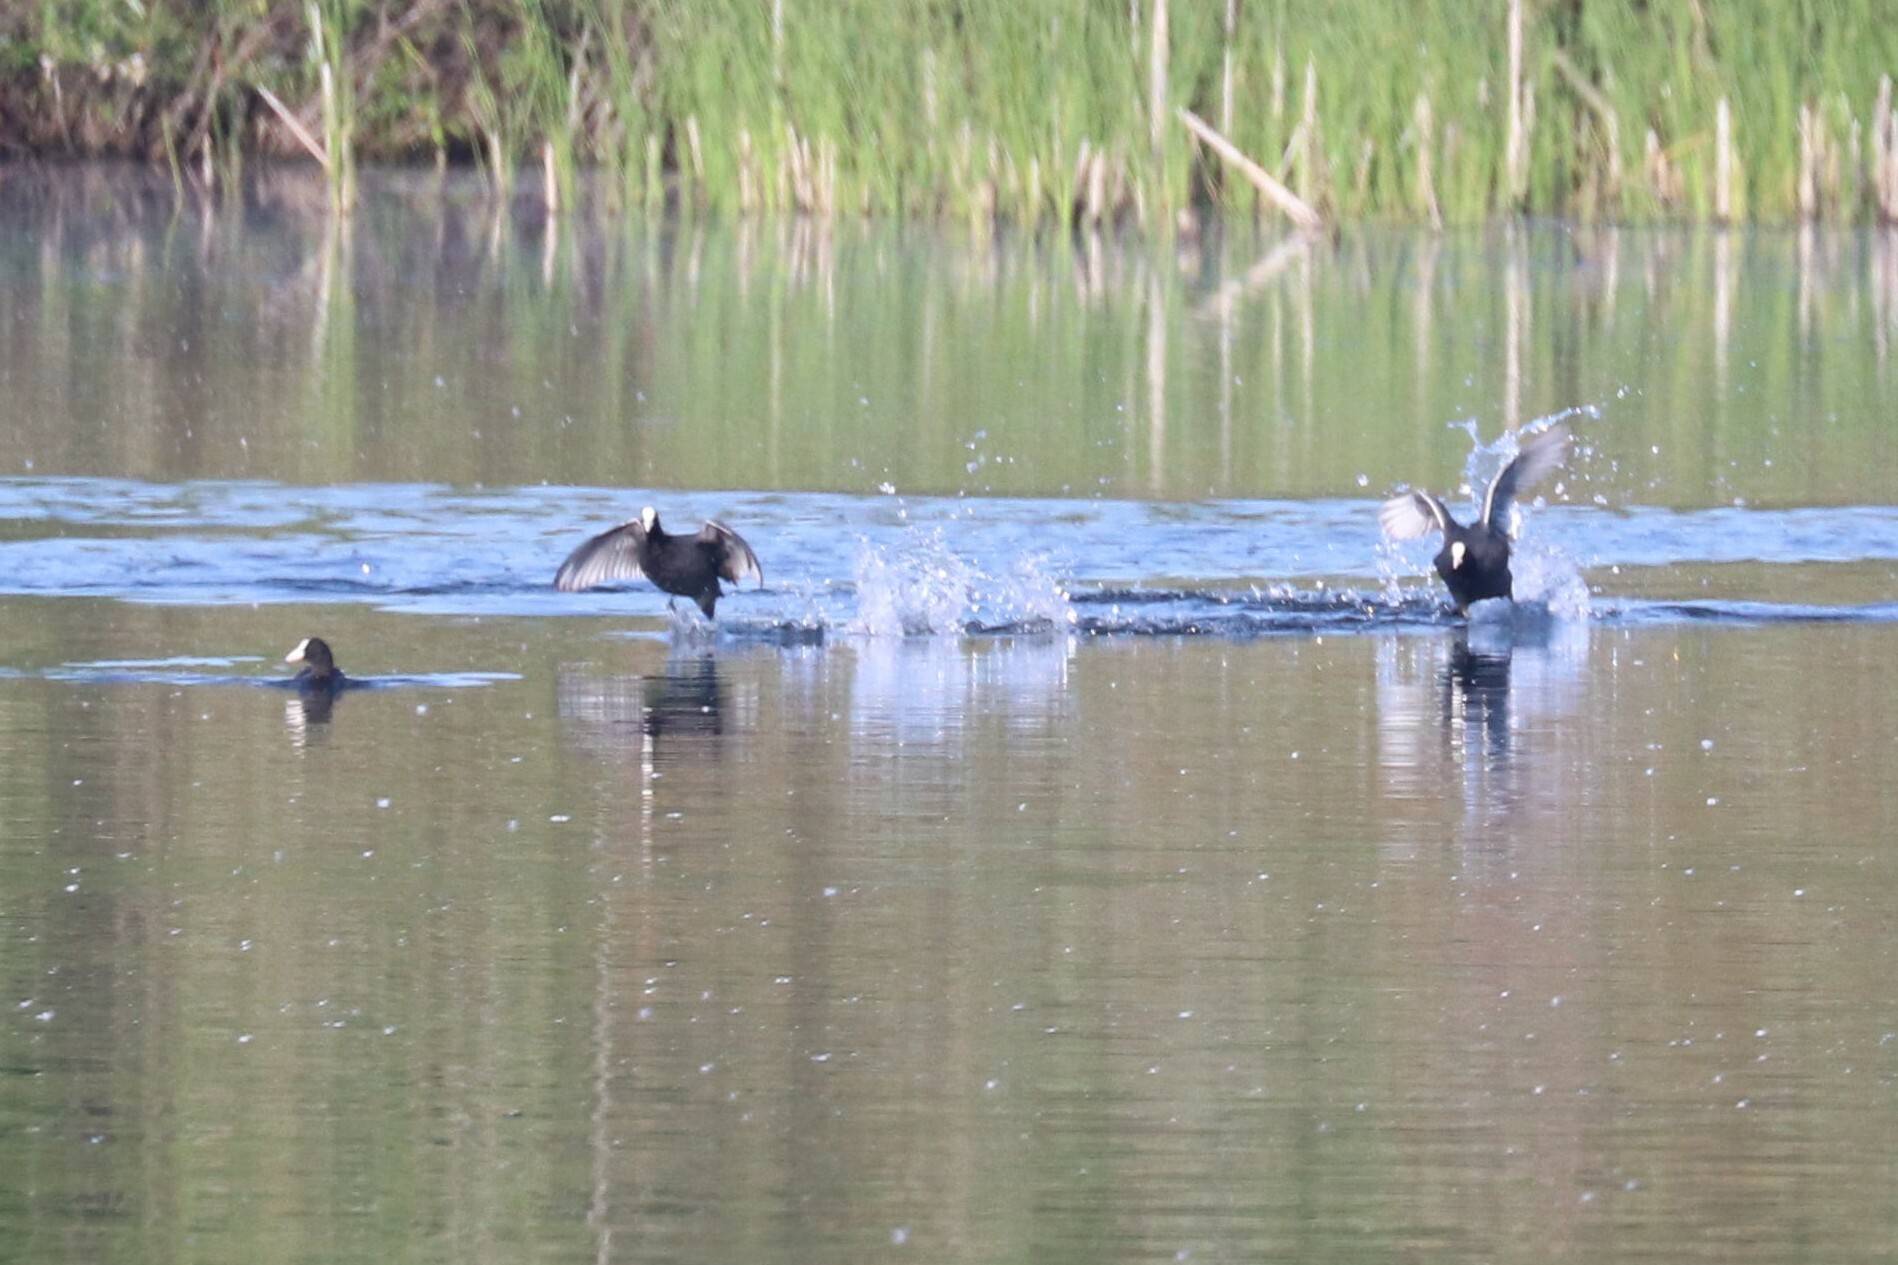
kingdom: Animalia
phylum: Chordata
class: Aves
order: Gruiformes
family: Rallidae
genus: Fulica
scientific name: Fulica atra
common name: Eurasian coot
